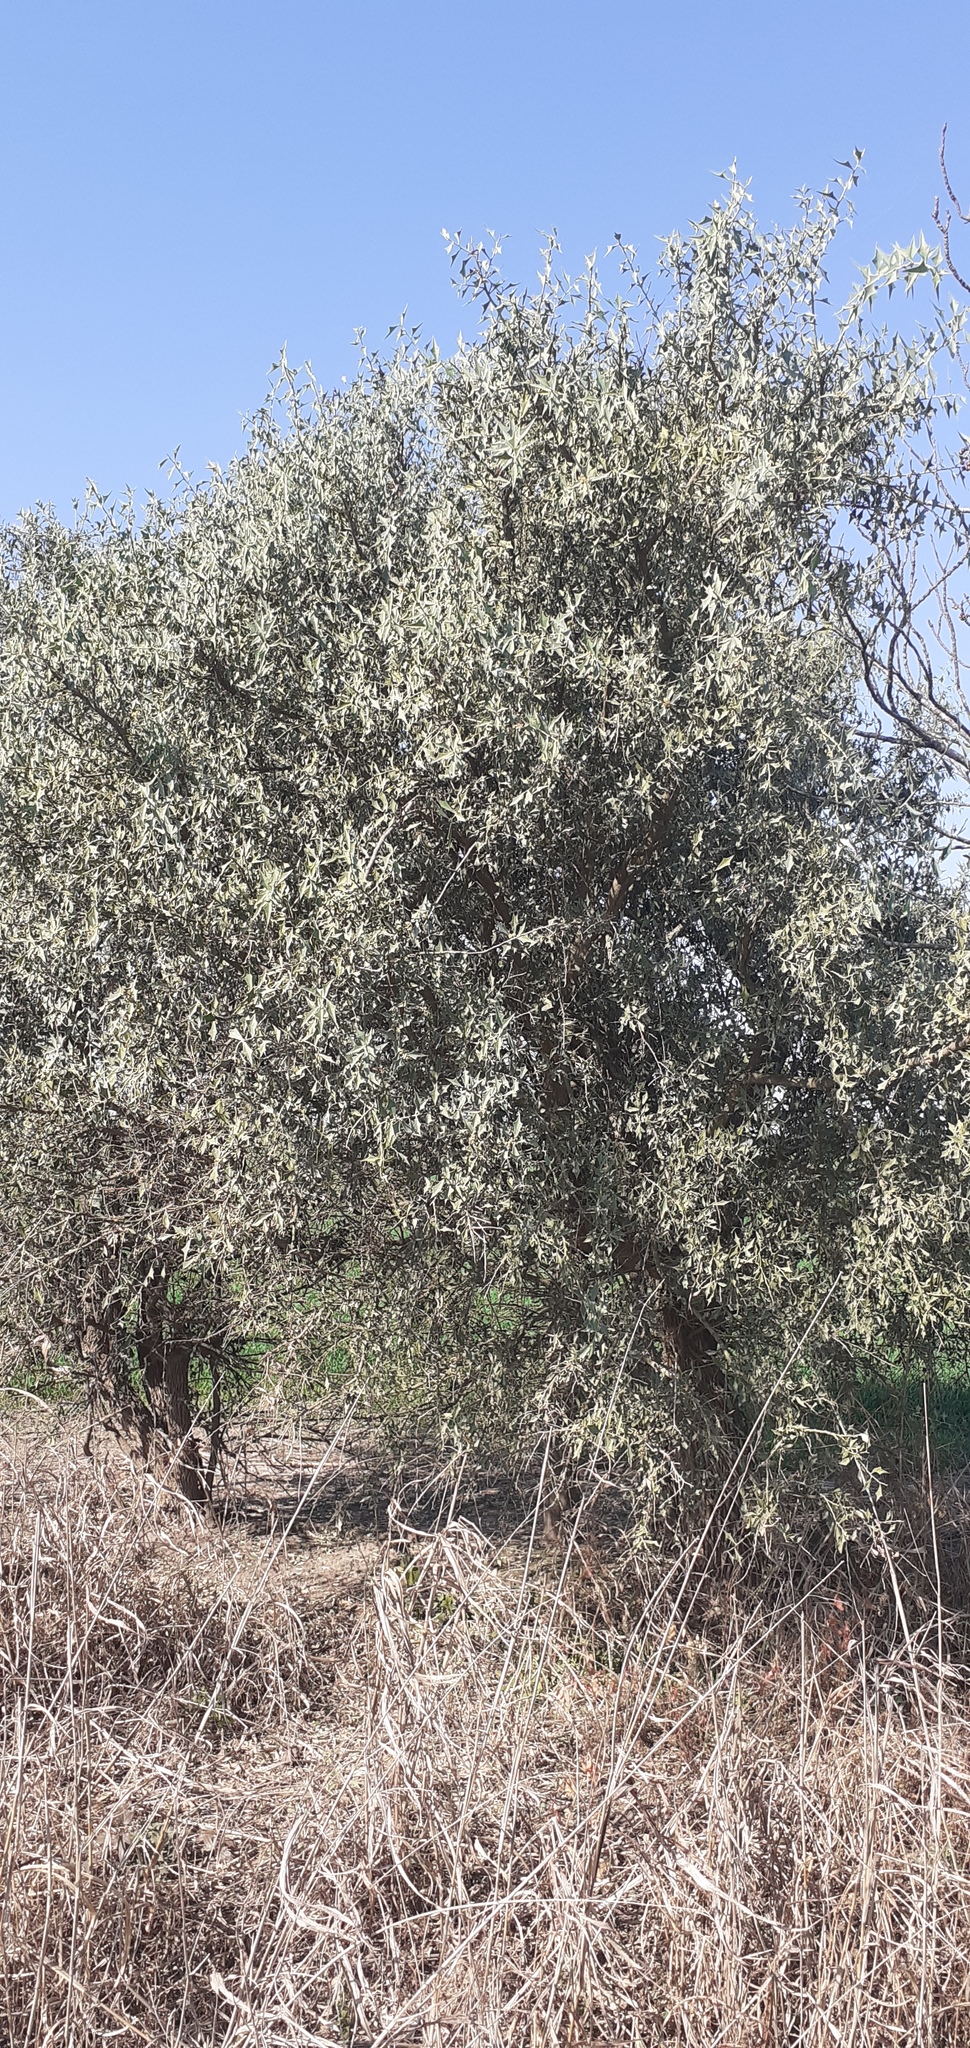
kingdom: Plantae
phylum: Tracheophyta
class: Magnoliopsida
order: Santalales
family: Cervantesiaceae
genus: Jodina
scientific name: Jodina rhombifolia
